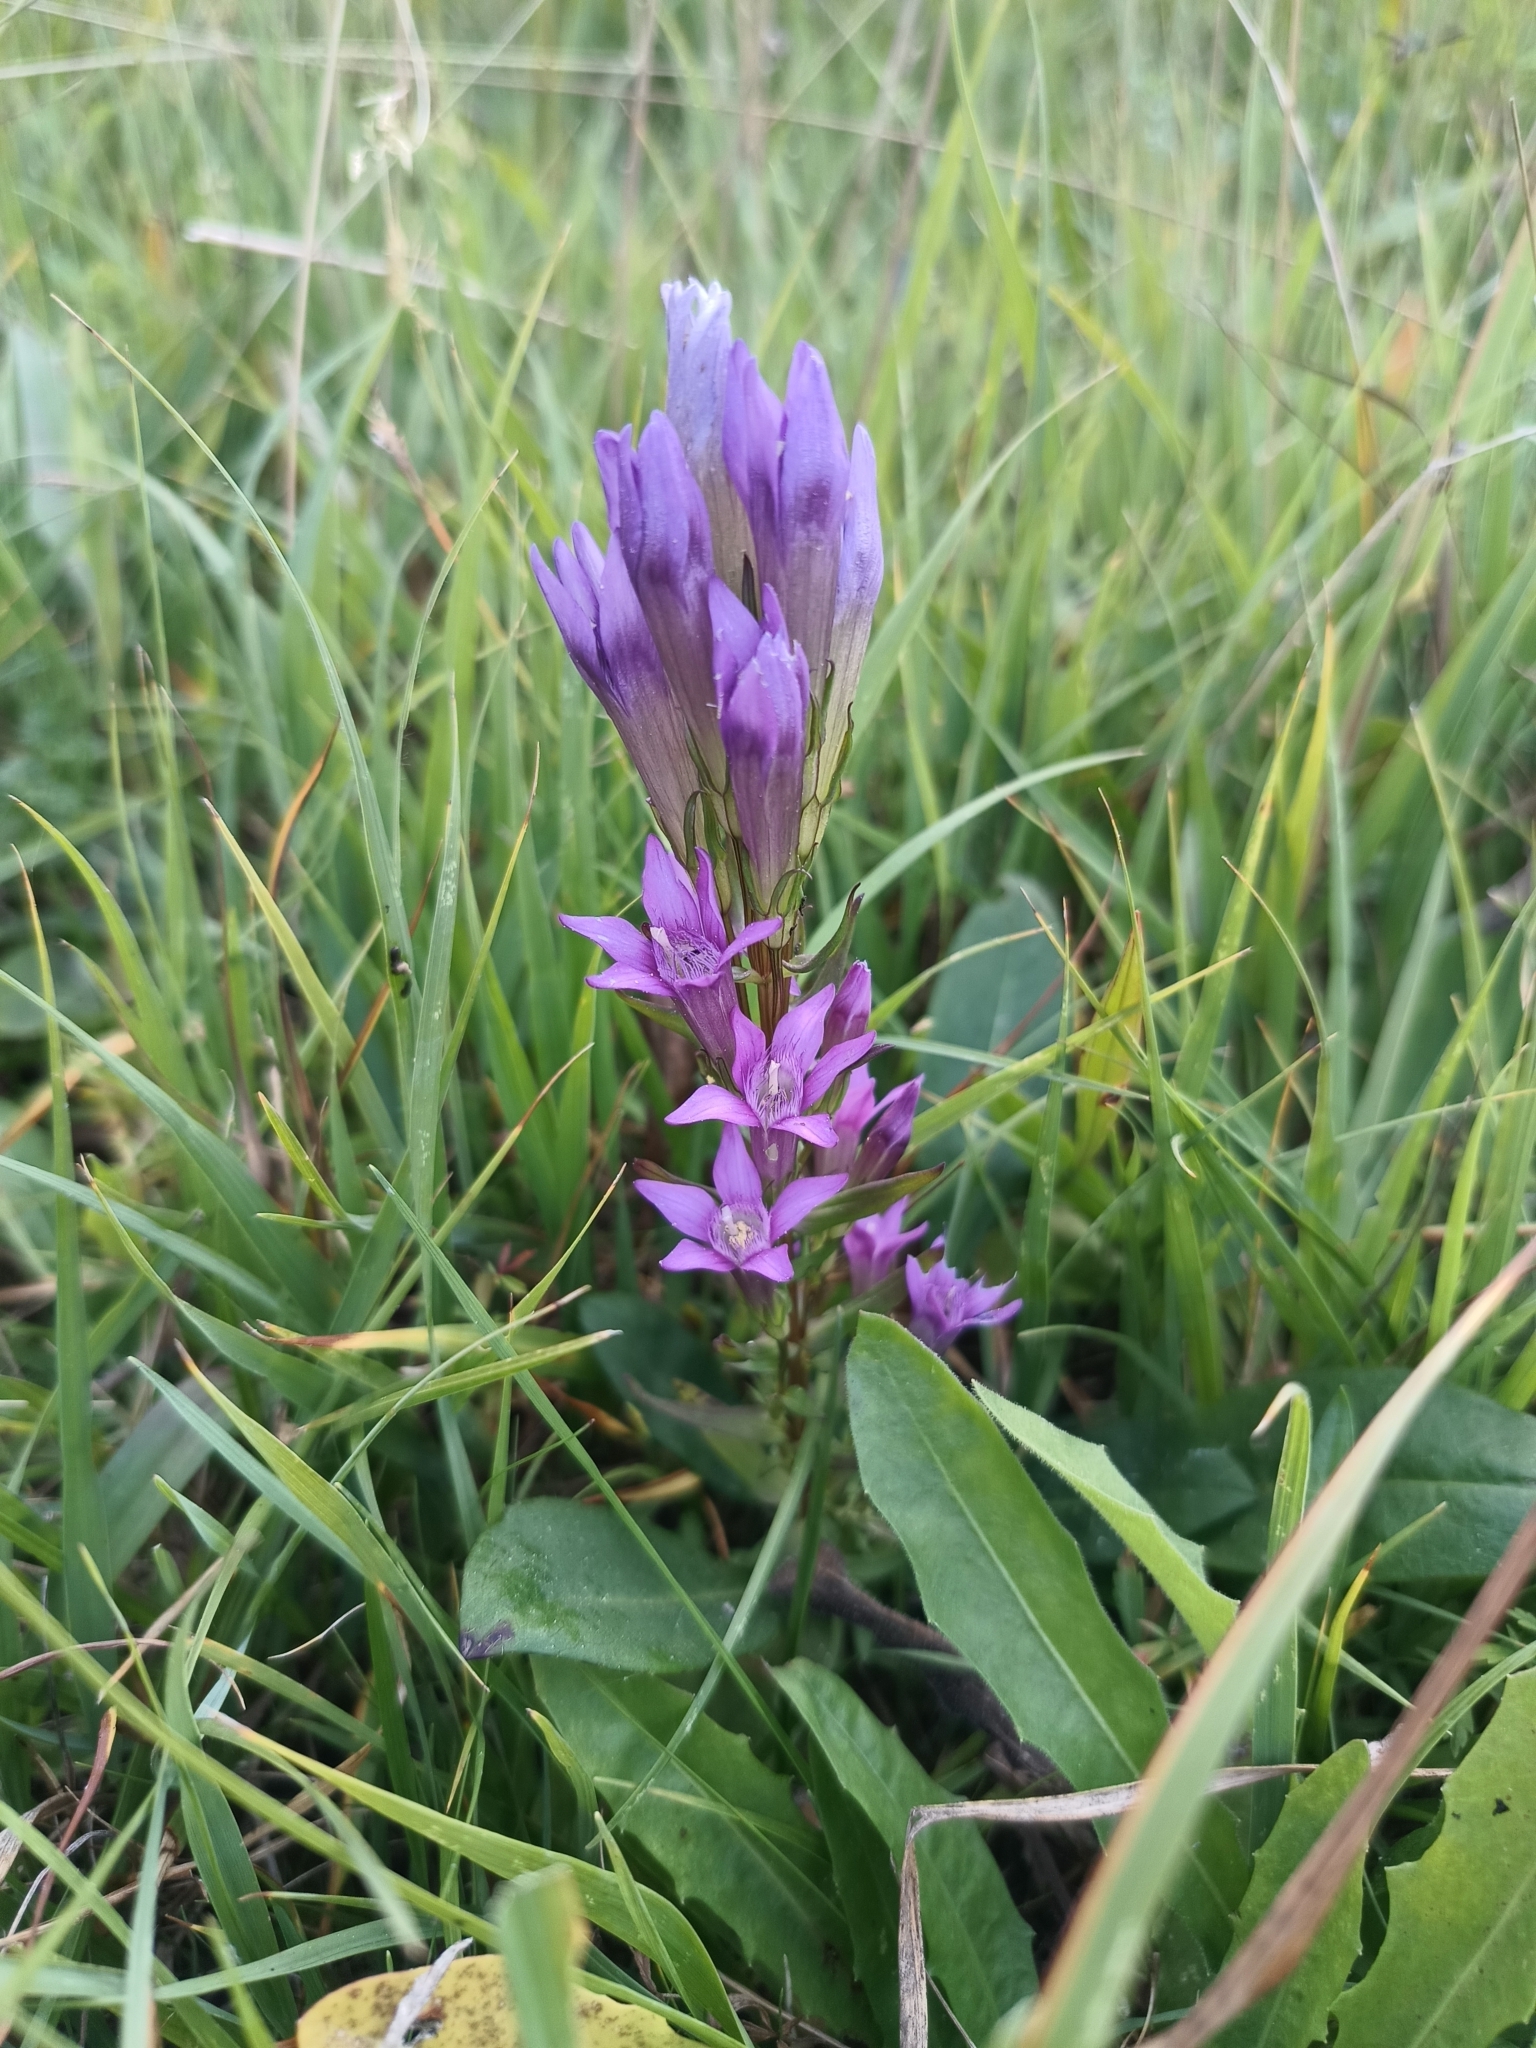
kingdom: Plantae
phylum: Tracheophyta
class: Magnoliopsida
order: Gentianales
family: Gentianaceae
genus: Gentianella
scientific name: Gentianella praecox
